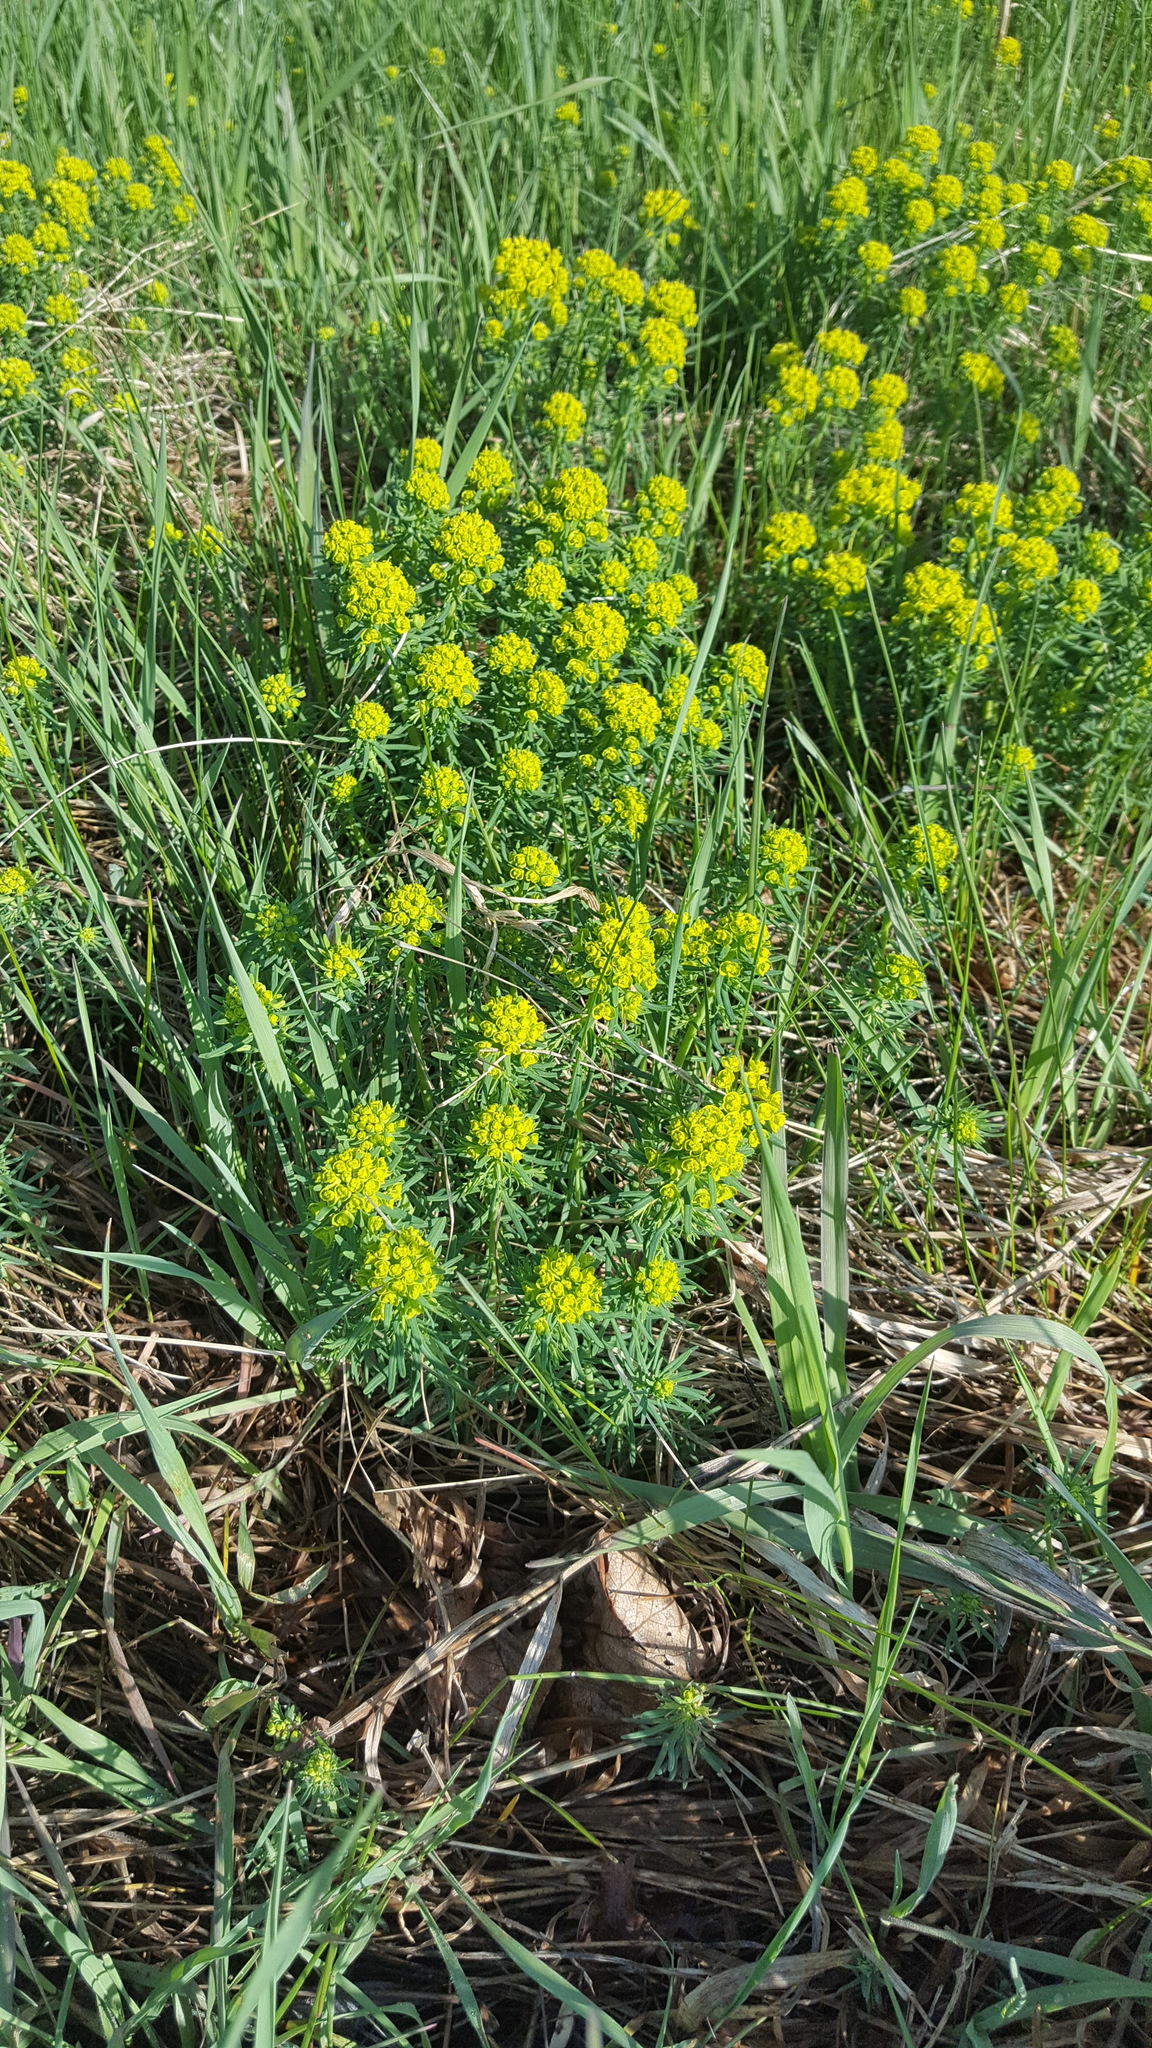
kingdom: Plantae
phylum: Tracheophyta
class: Magnoliopsida
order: Malpighiales
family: Euphorbiaceae
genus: Euphorbia
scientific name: Euphorbia cyparissias
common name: Cypress spurge
